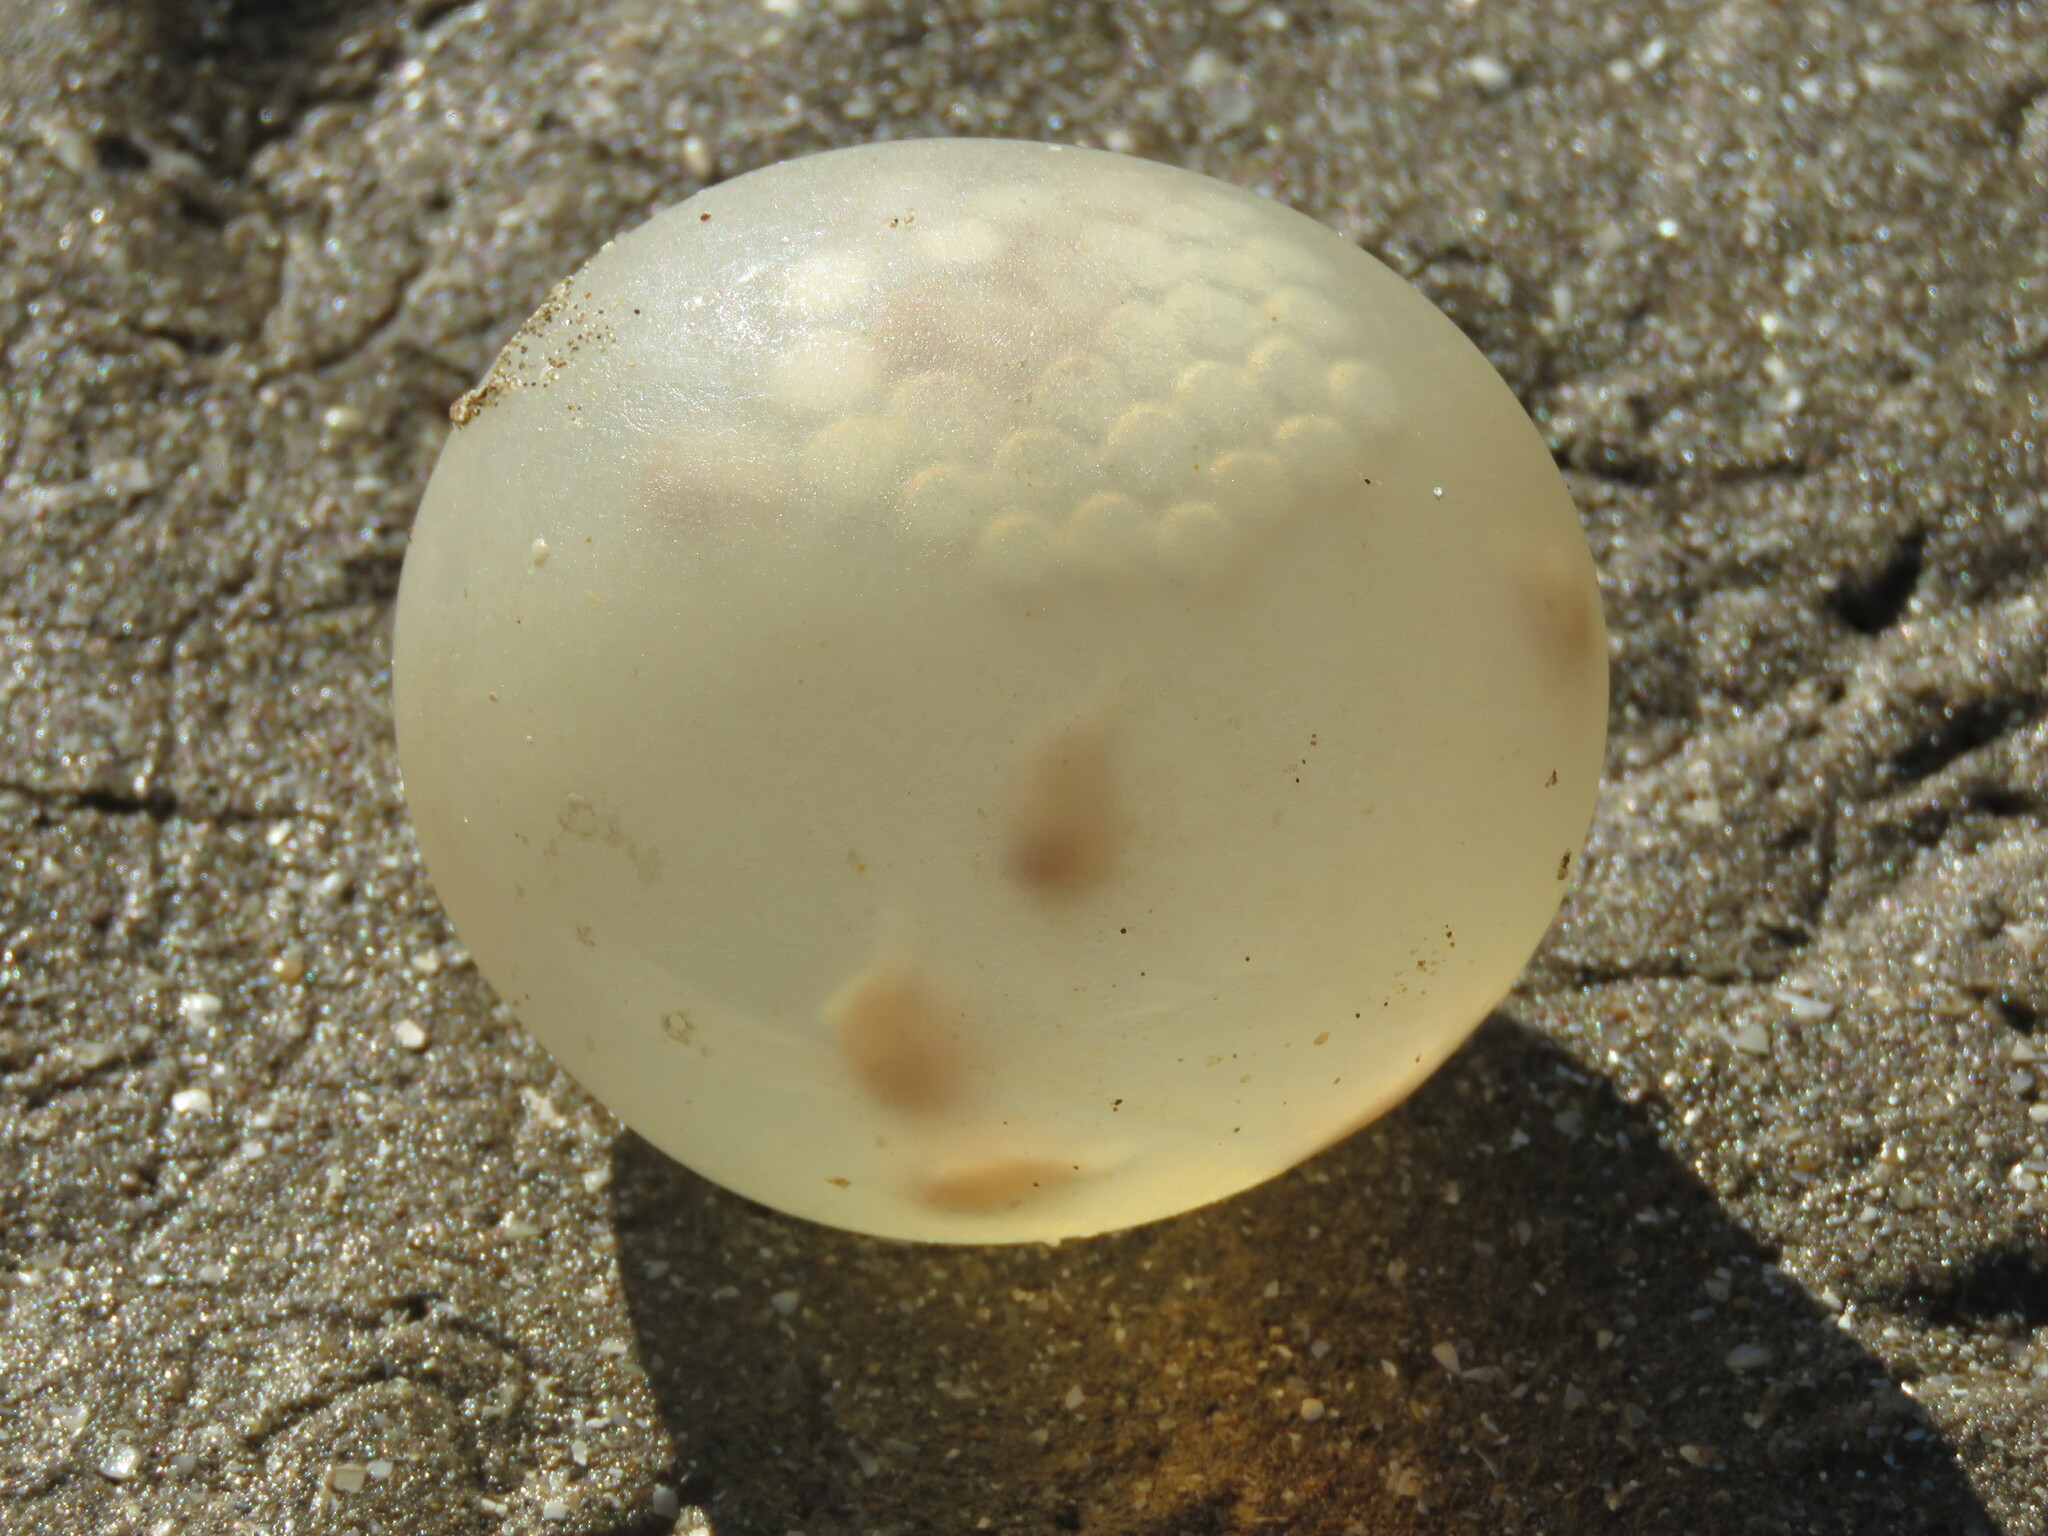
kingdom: Animalia
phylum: Mollusca
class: Gastropoda
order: Neogastropoda
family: Volutidae
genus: Pachycymbiola
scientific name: Pachycymbiola brasiliana
